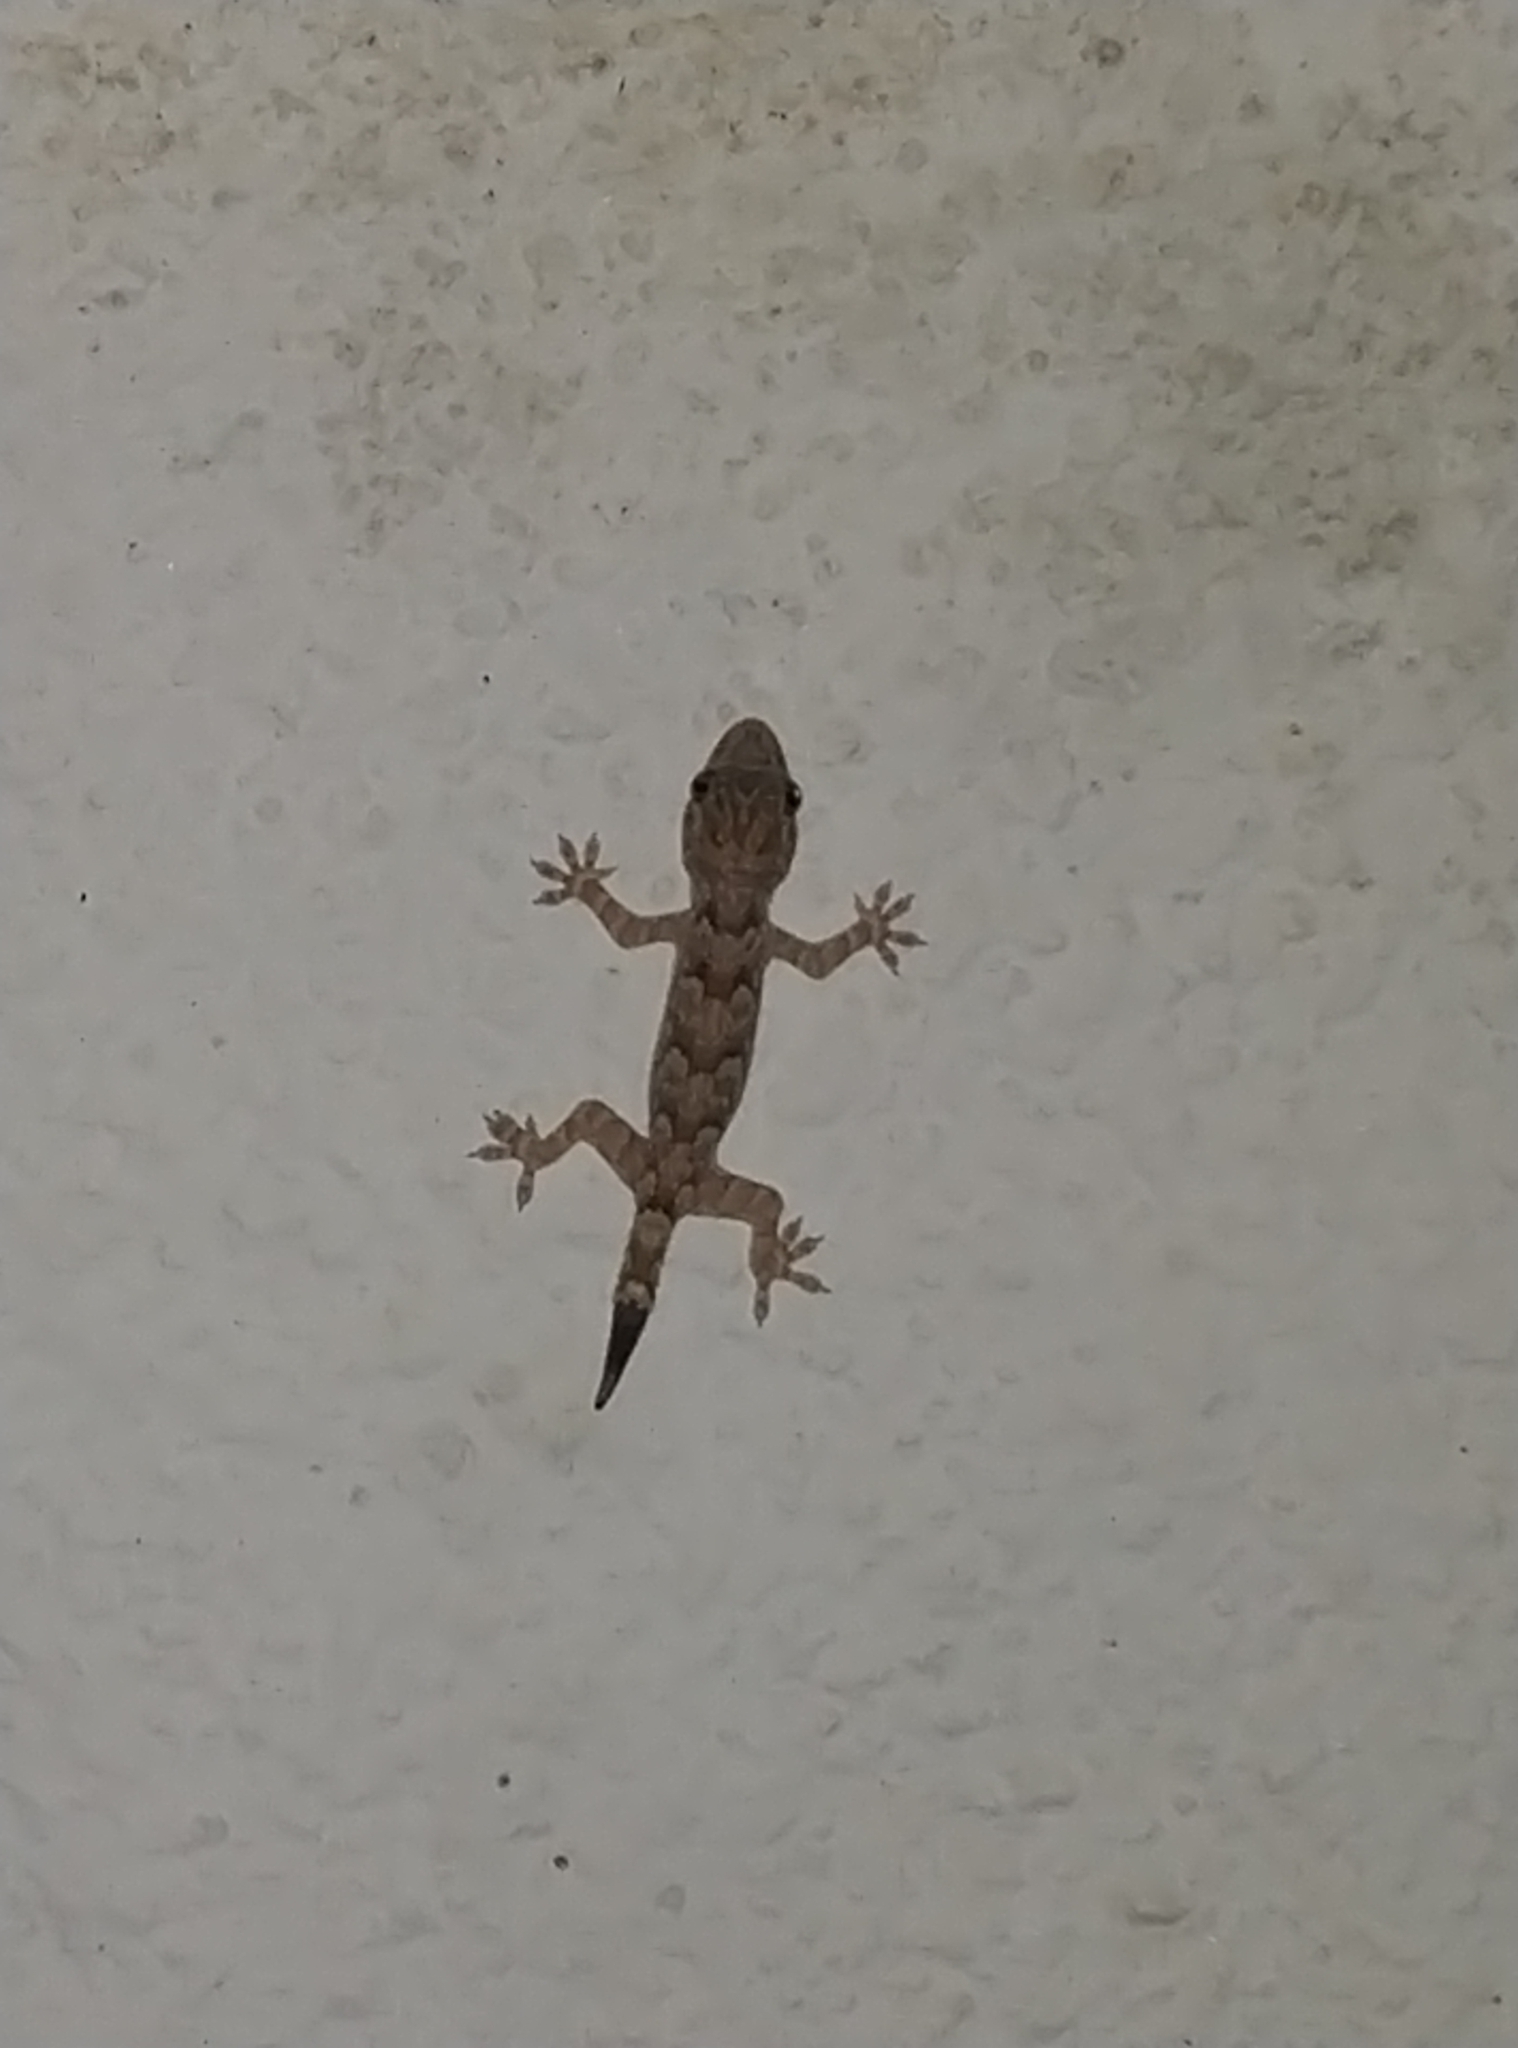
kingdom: Animalia
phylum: Chordata
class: Squamata
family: Gekkonidae
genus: Hemidactylus
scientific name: Hemidactylus leschenaultii
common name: Leschenault's leaf-toed gecko
